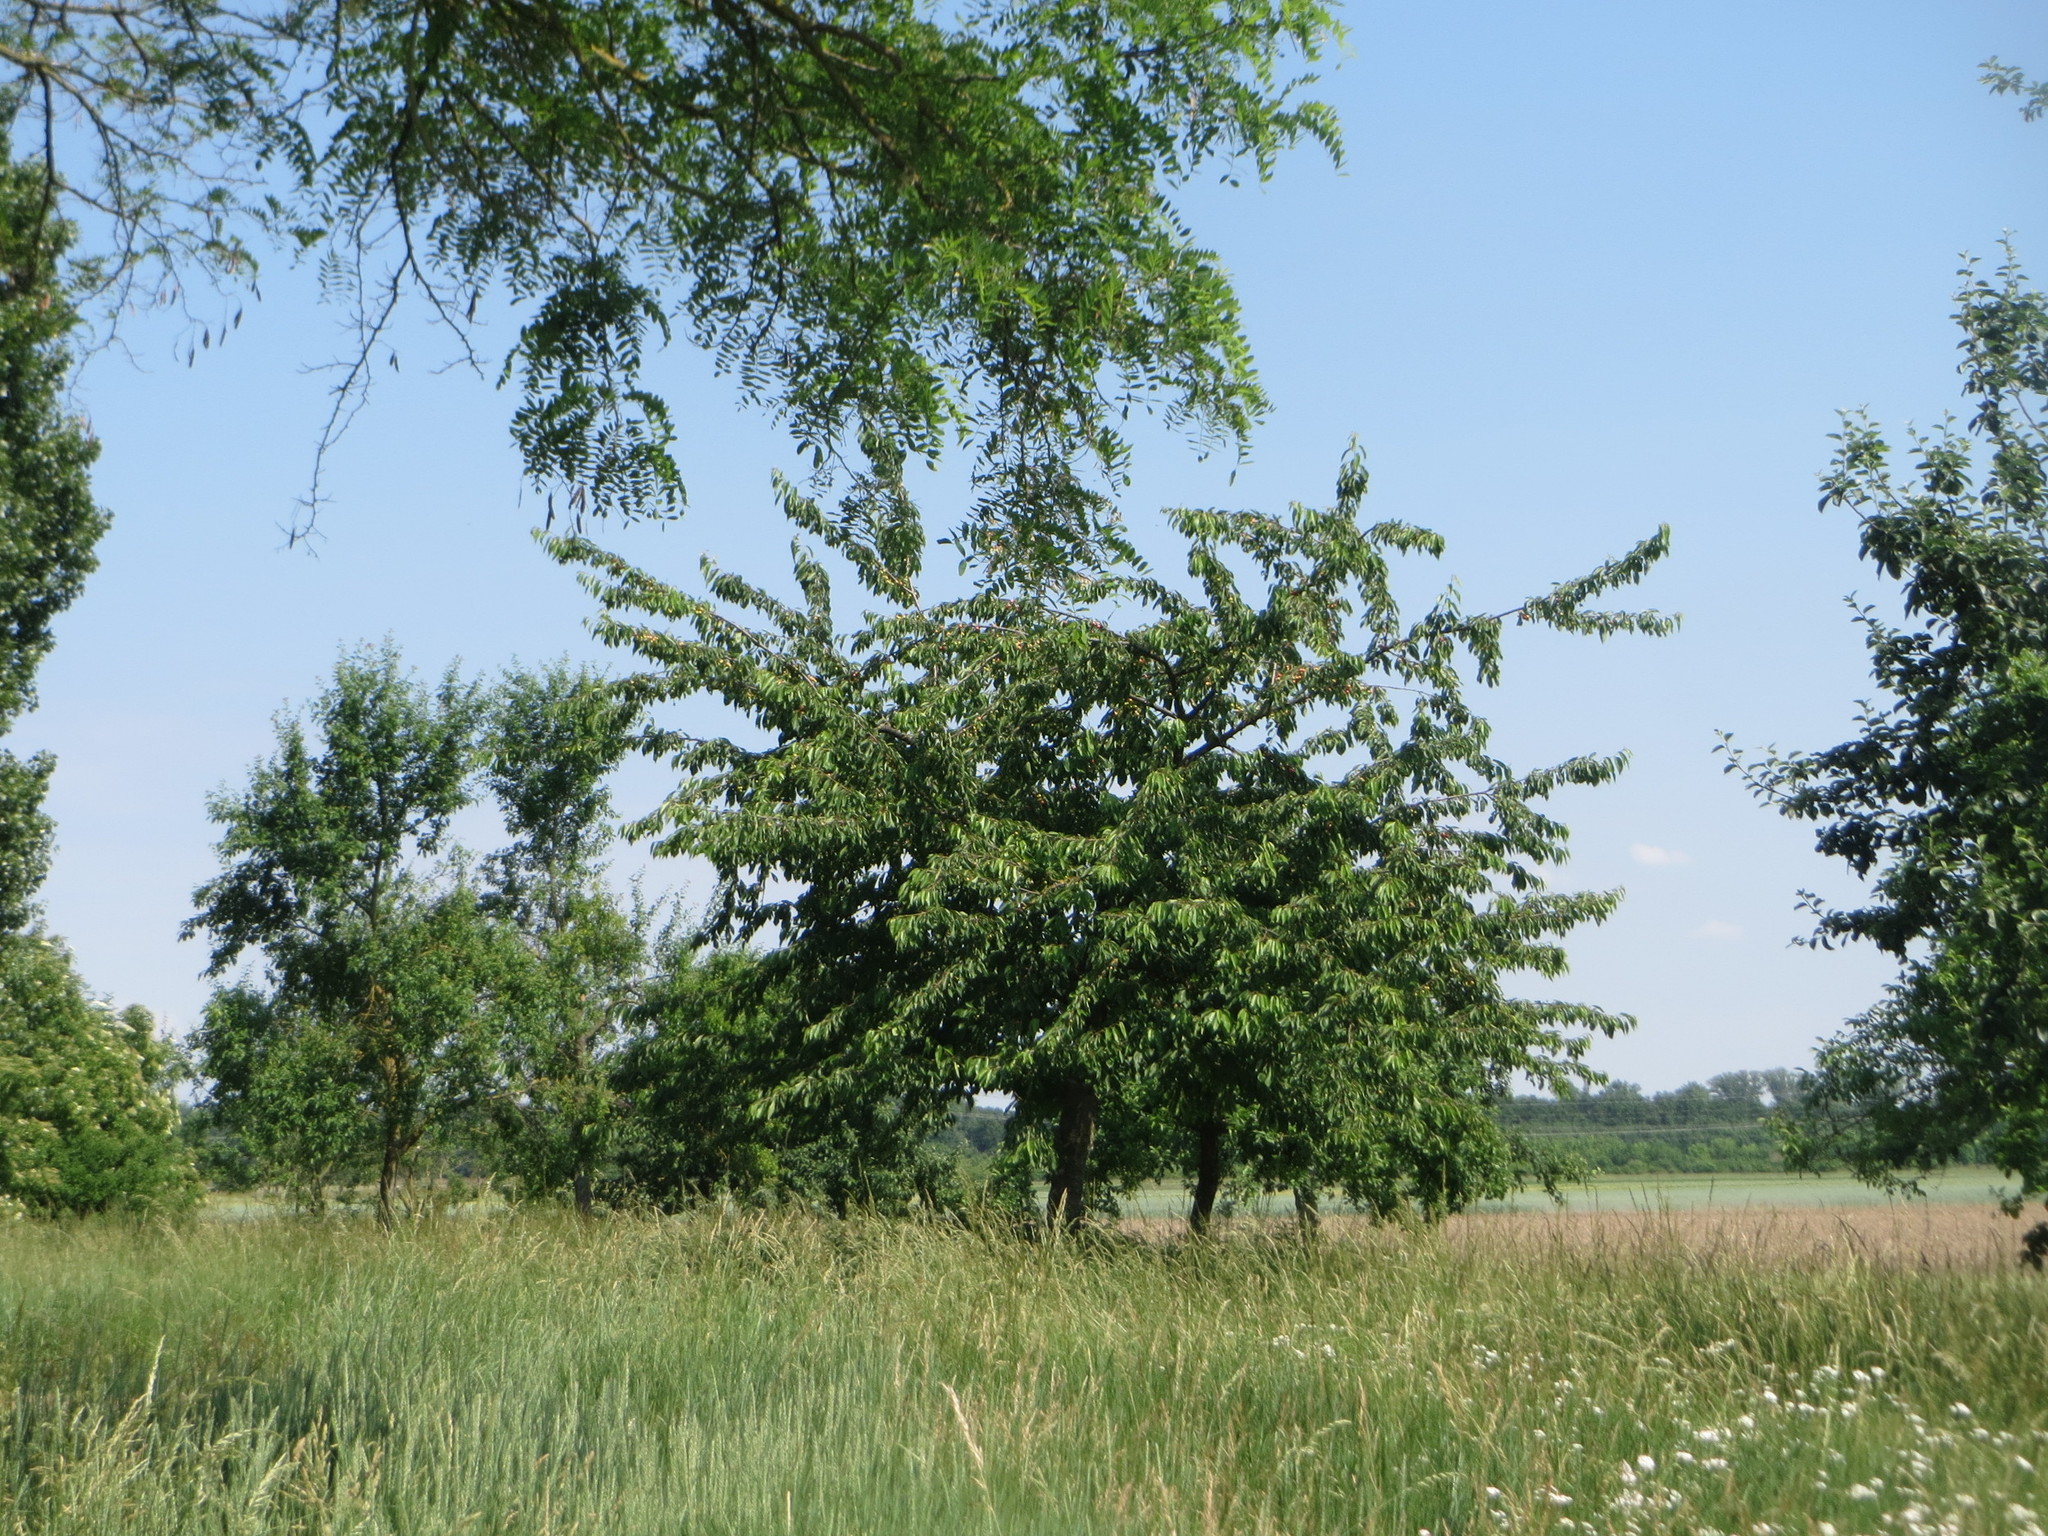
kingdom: Plantae
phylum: Tracheophyta
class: Magnoliopsida
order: Rosales
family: Rosaceae
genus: Prunus
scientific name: Prunus avium
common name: Sweet cherry
